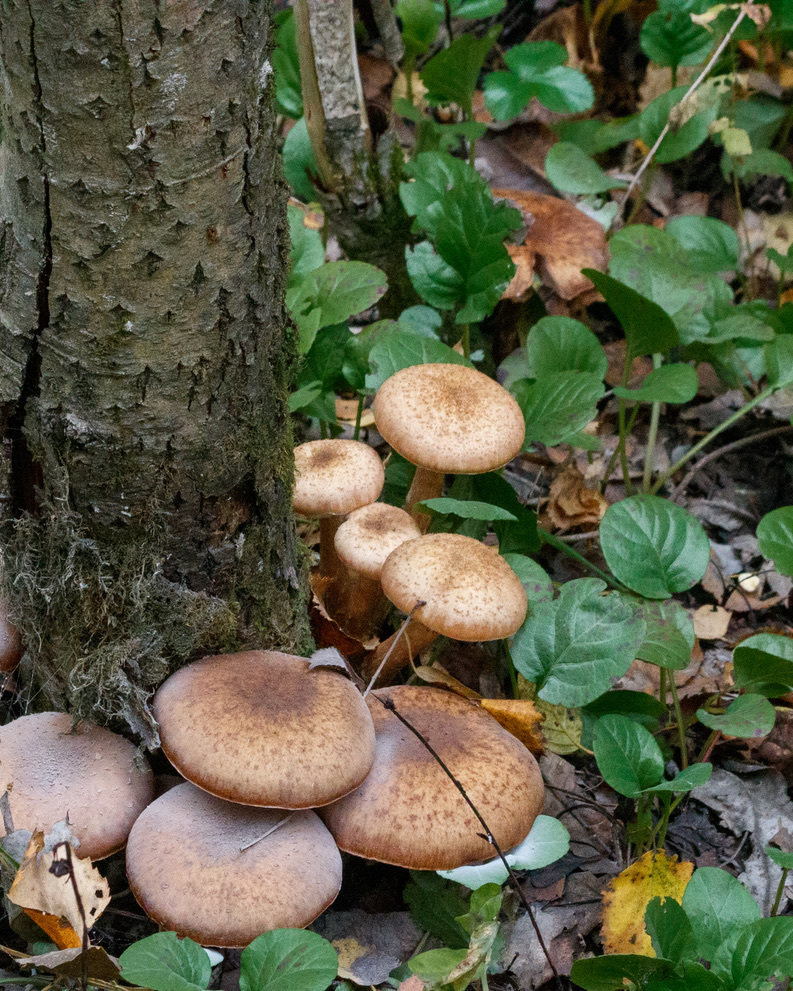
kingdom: Fungi
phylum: Basidiomycota
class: Agaricomycetes
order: Agaricales
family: Physalacriaceae
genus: Armillaria
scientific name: Armillaria borealis
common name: Northern honey fungus
